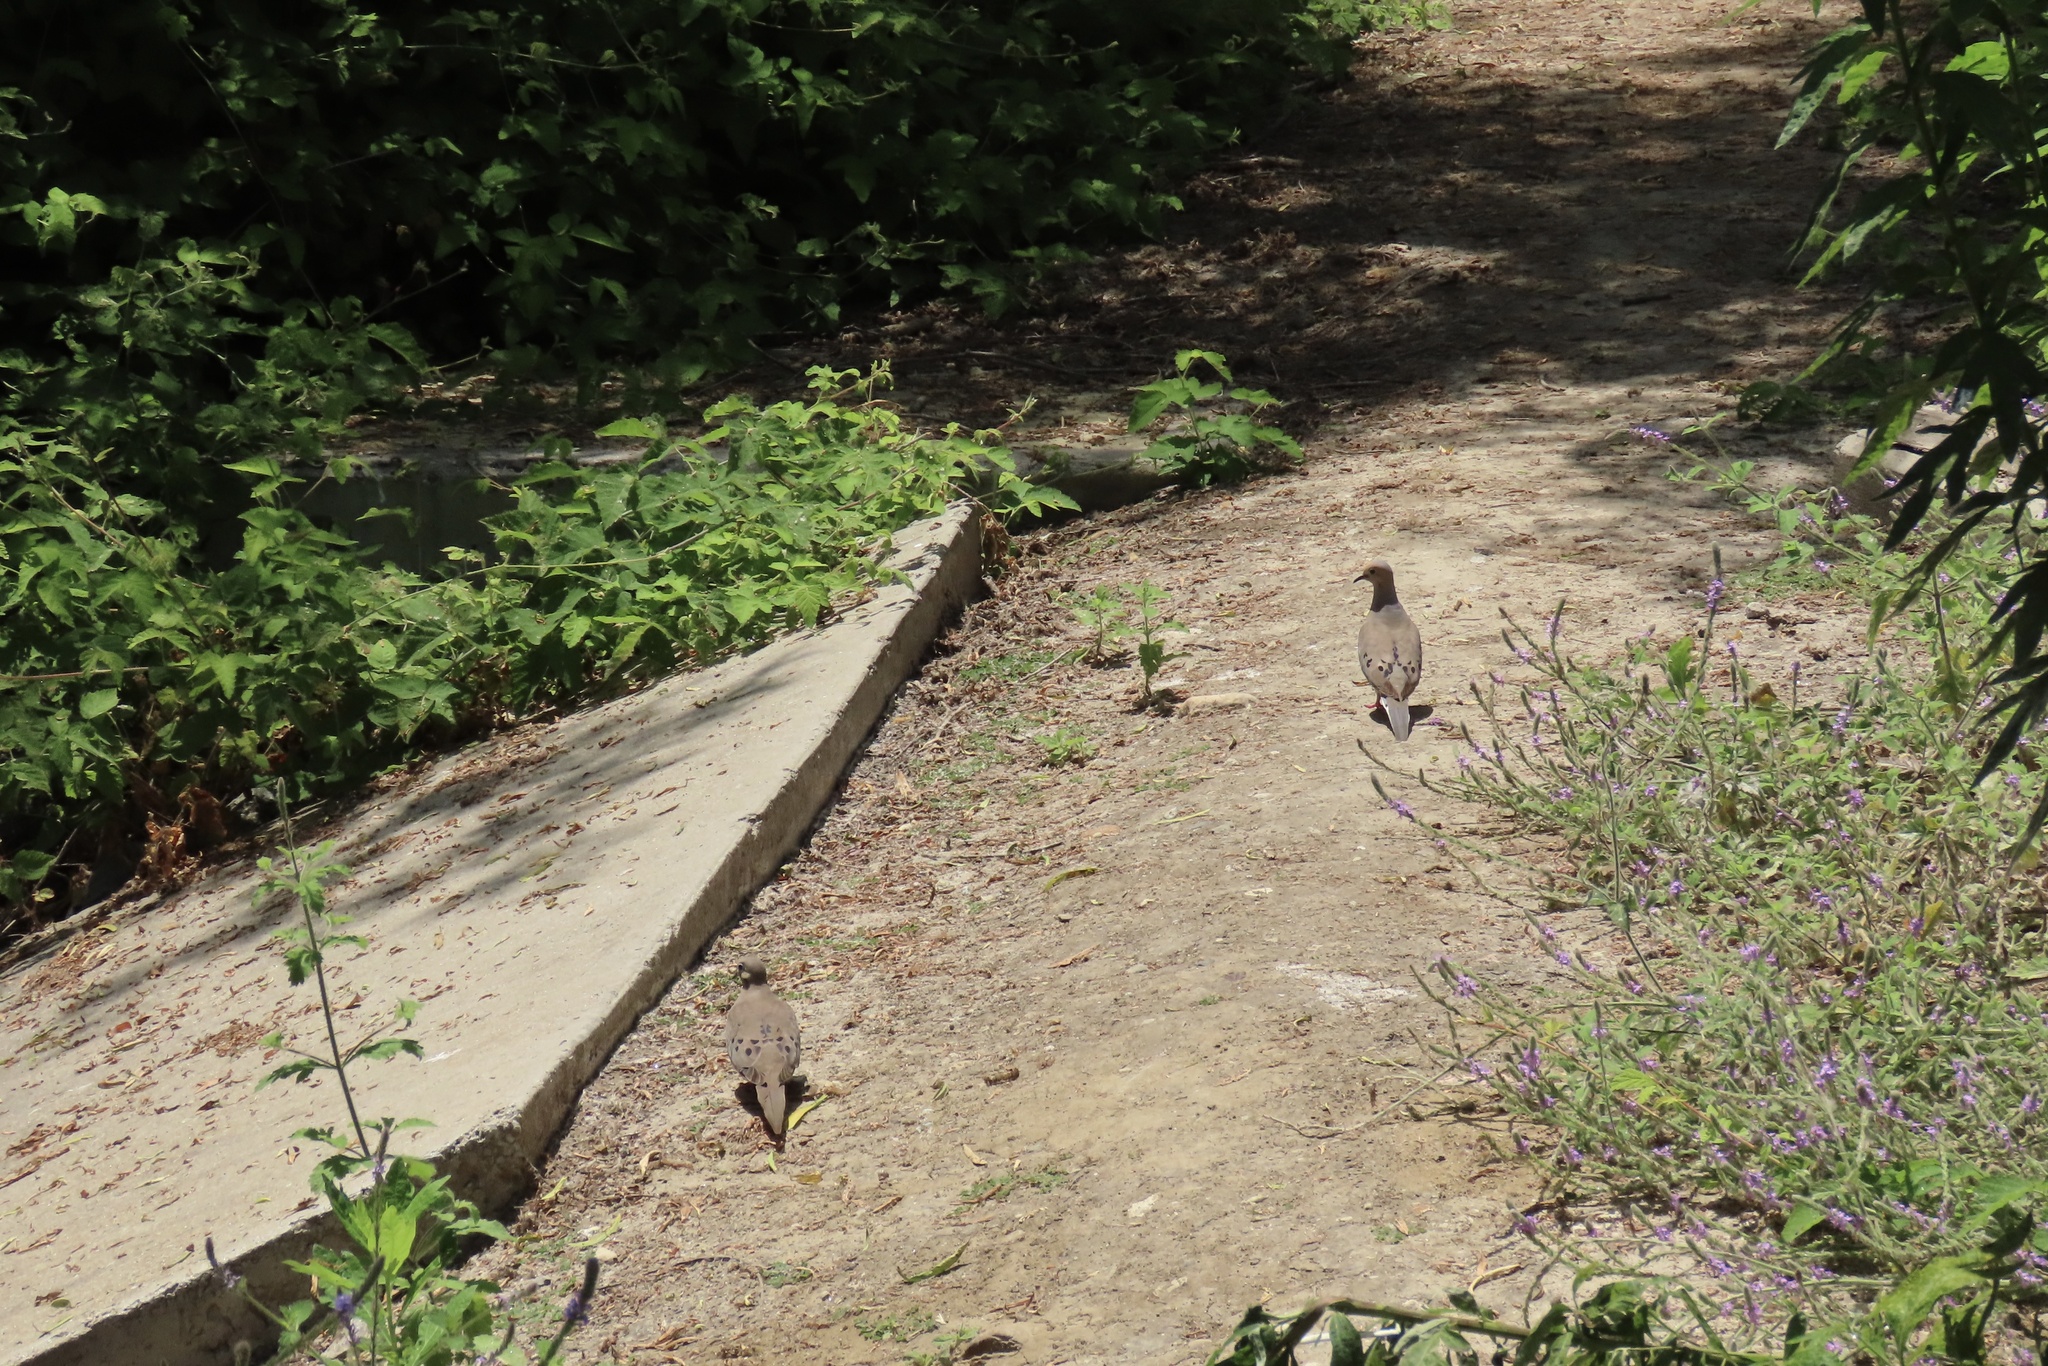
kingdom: Animalia
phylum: Chordata
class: Aves
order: Columbiformes
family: Columbidae
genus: Zenaida
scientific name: Zenaida macroura
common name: Mourning dove
